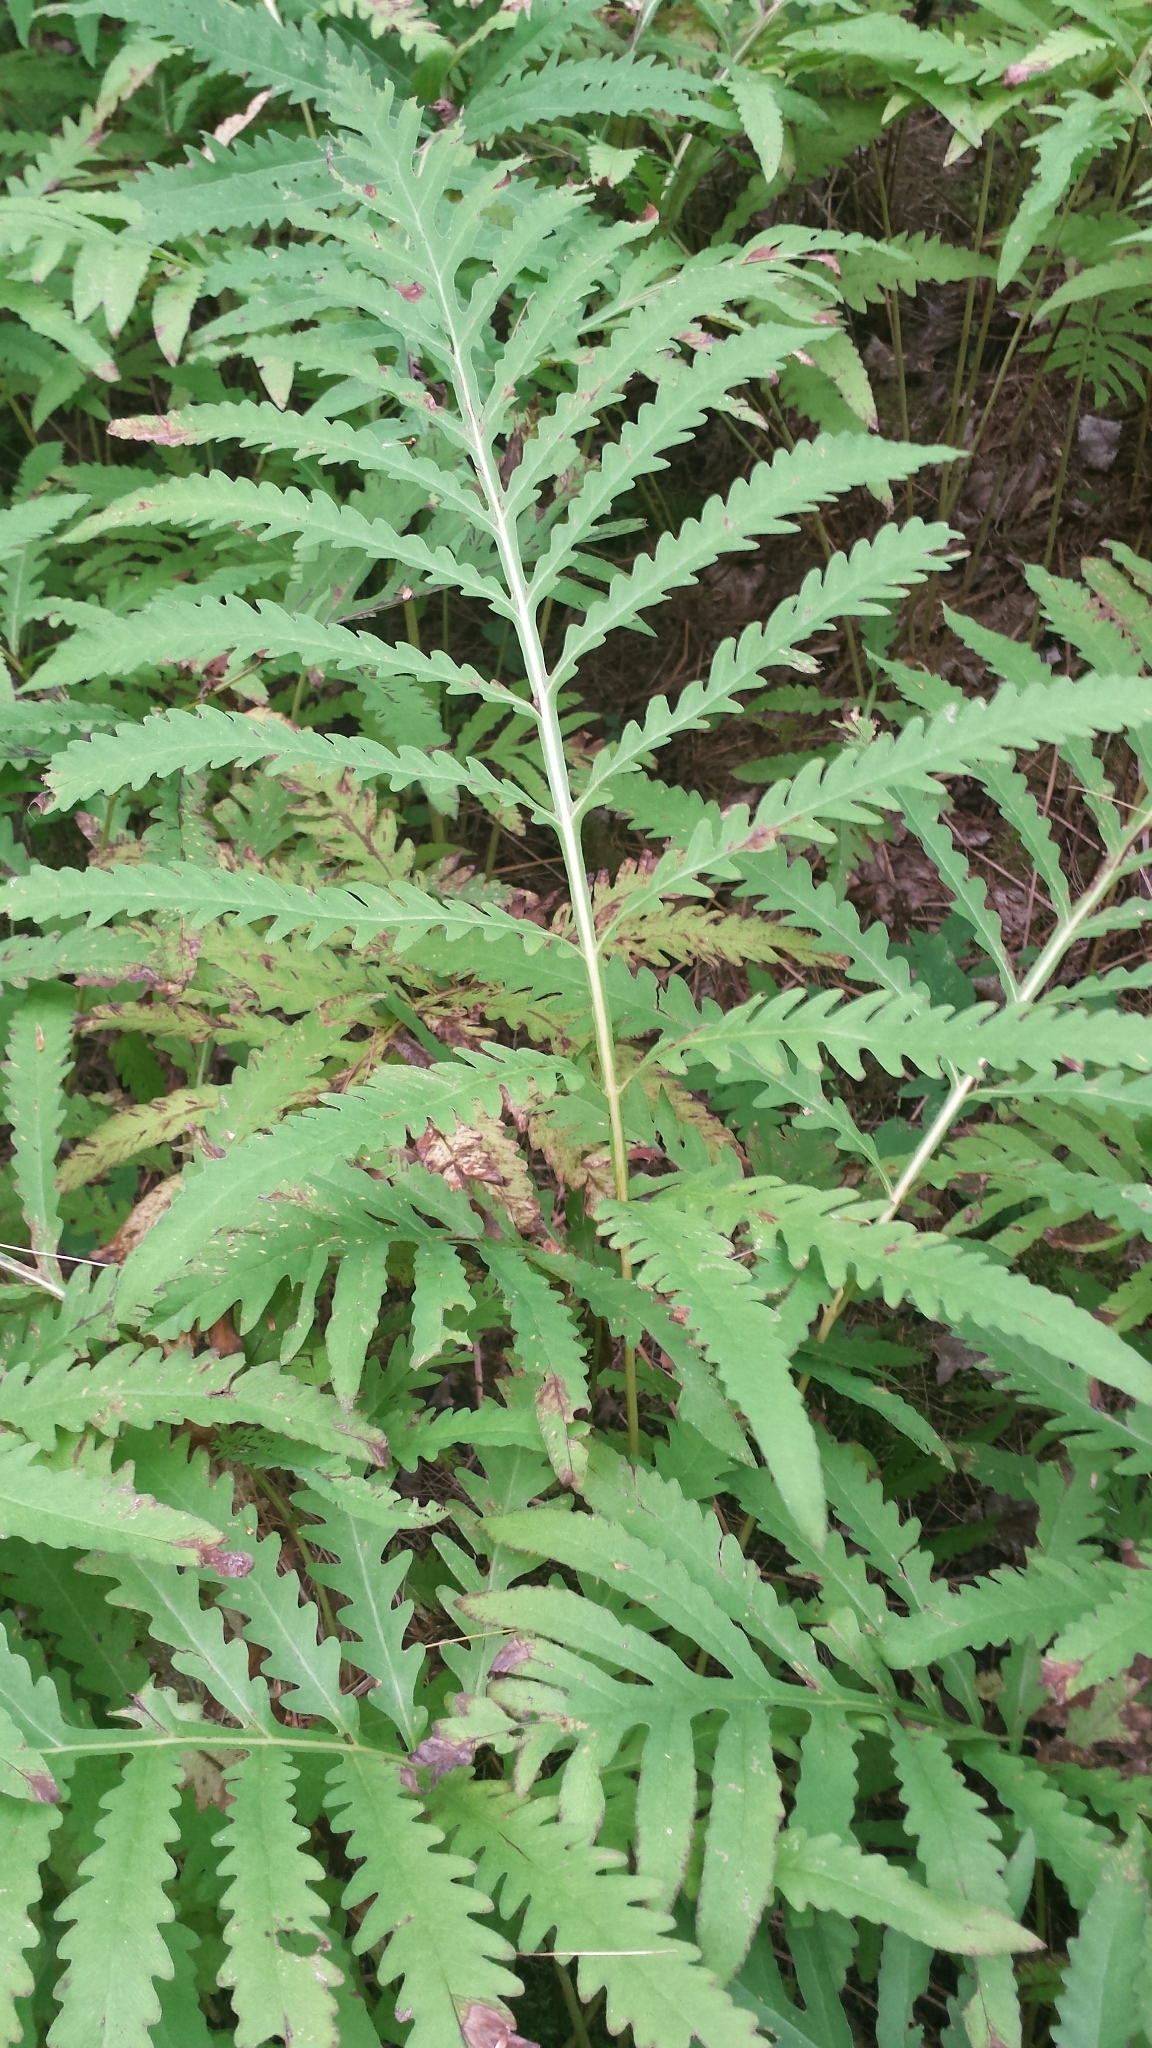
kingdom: Plantae
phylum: Tracheophyta
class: Polypodiopsida
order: Polypodiales
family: Onocleaceae
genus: Onoclea
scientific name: Onoclea sensibilis
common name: Sensitive fern
